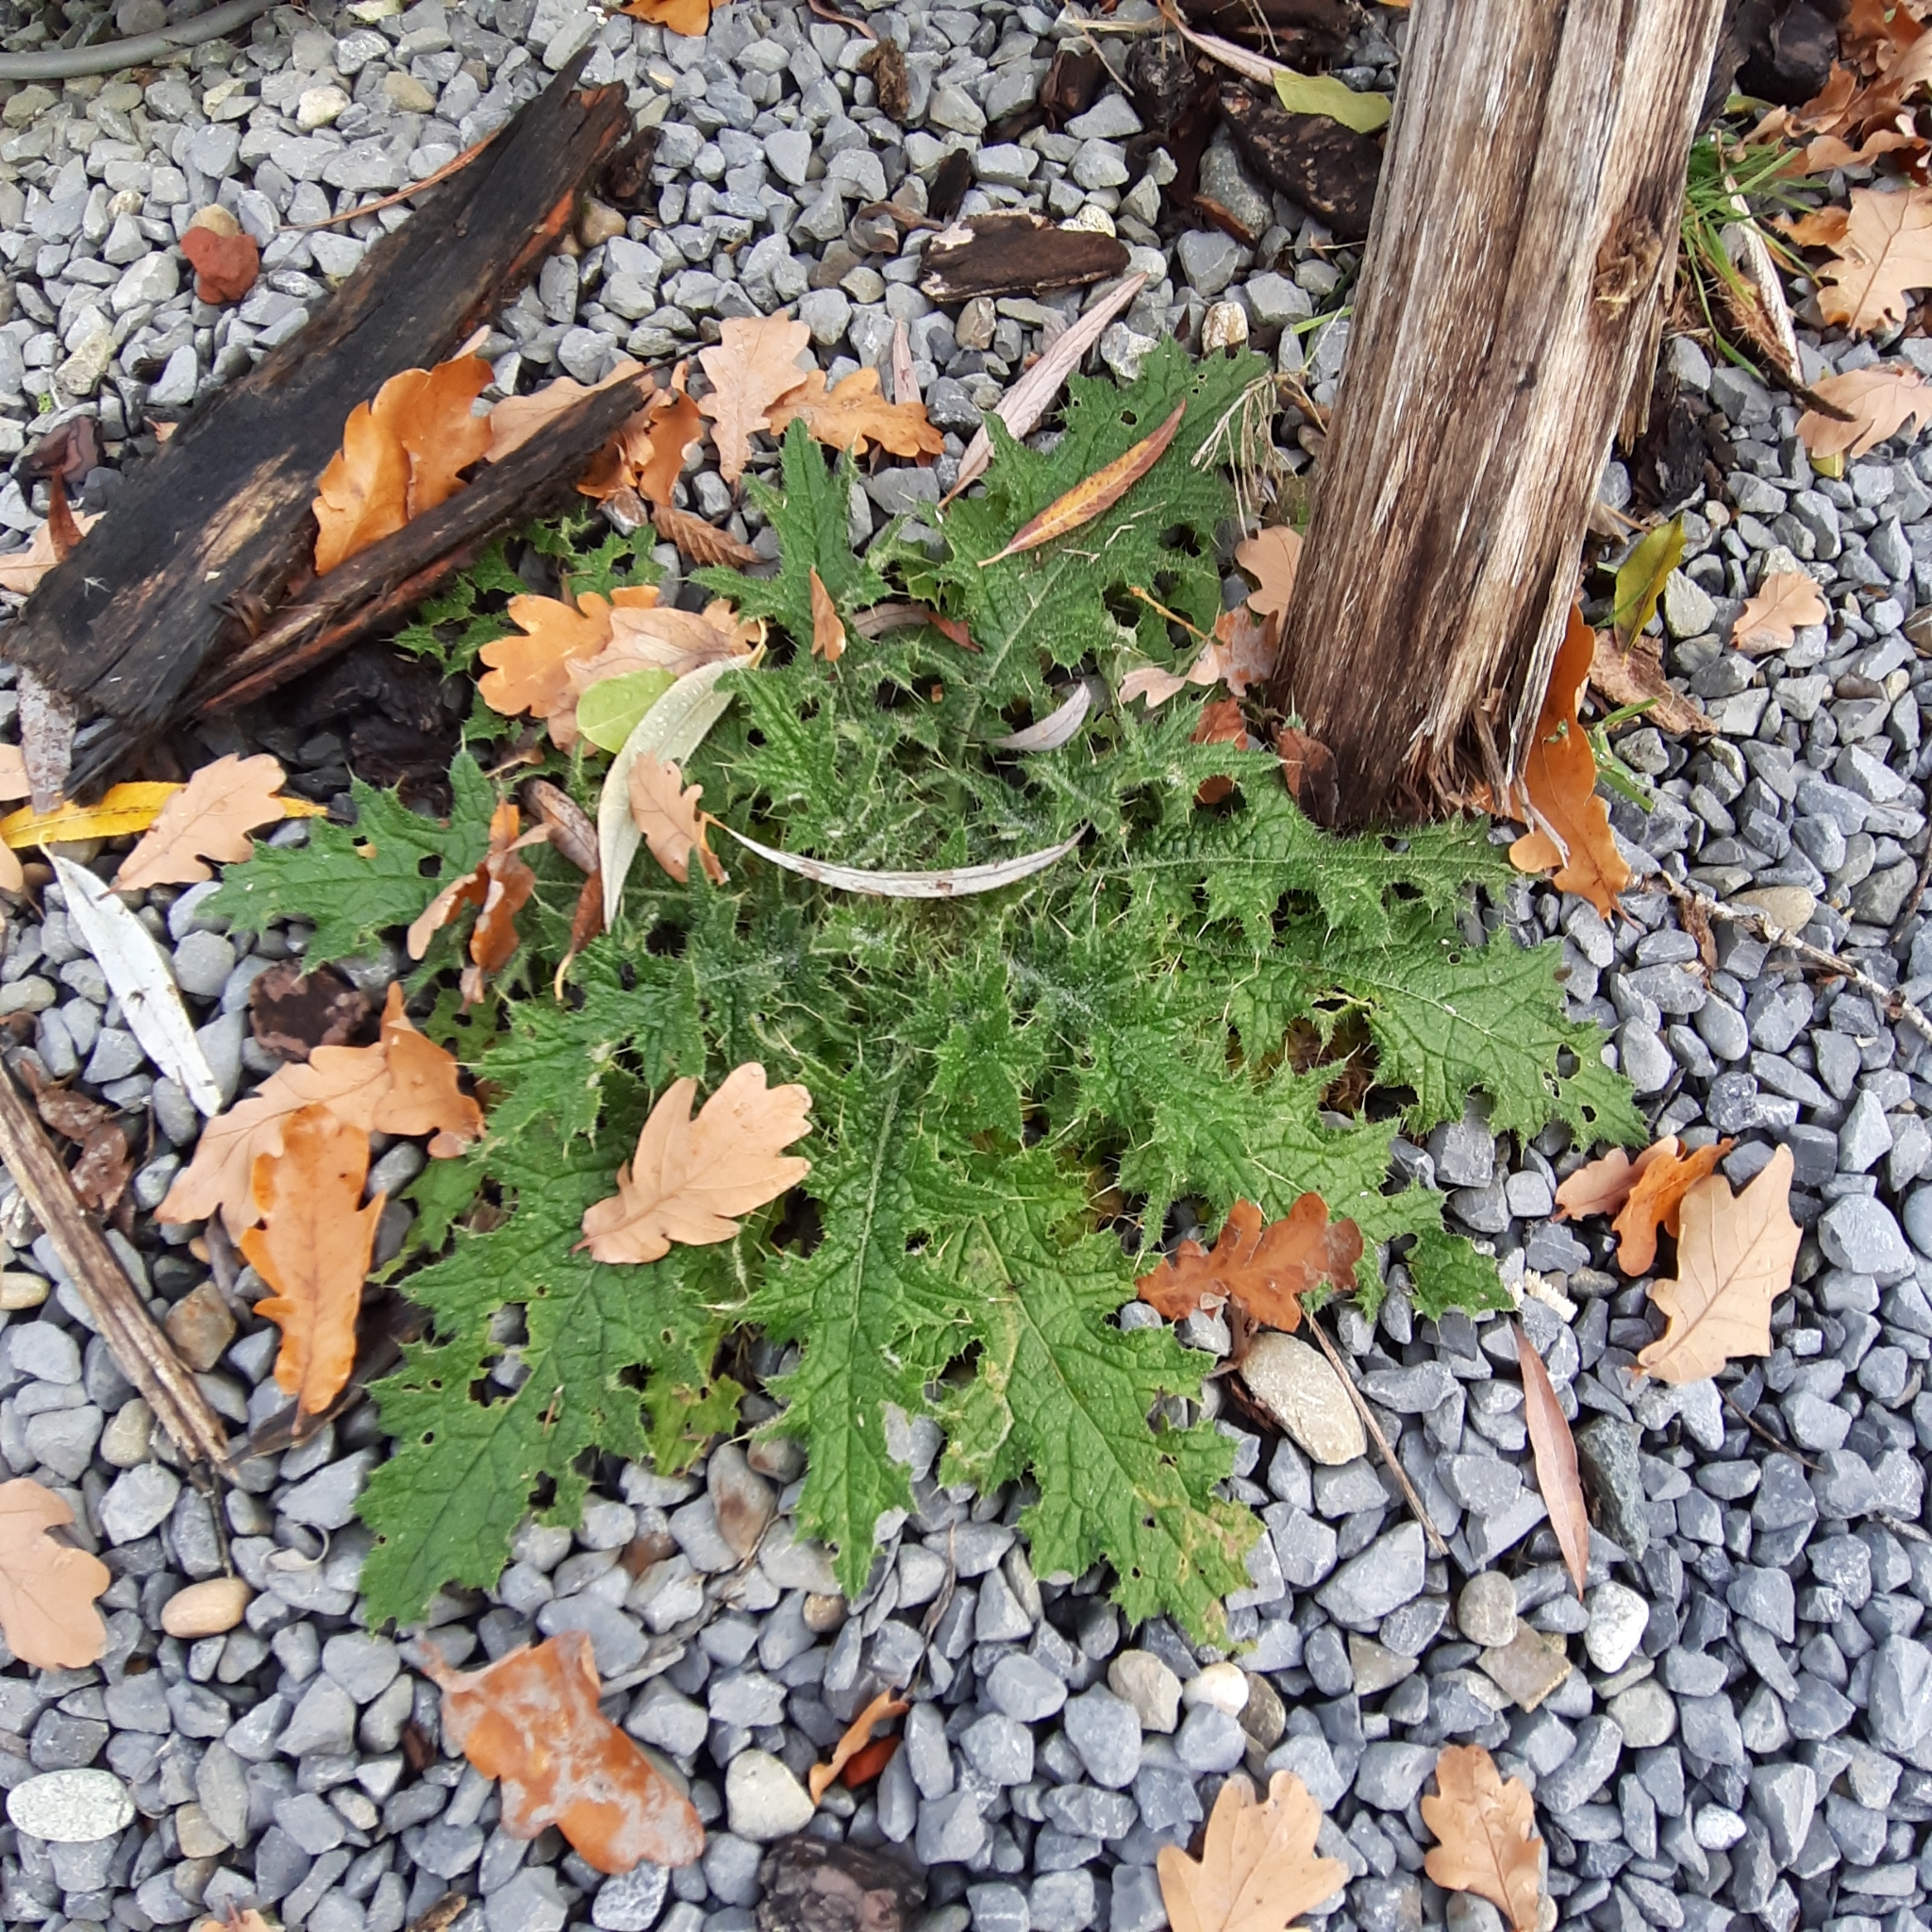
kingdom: Plantae
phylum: Tracheophyta
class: Magnoliopsida
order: Asterales
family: Asteraceae
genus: Cirsium
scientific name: Cirsium vulgare
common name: Bull thistle
